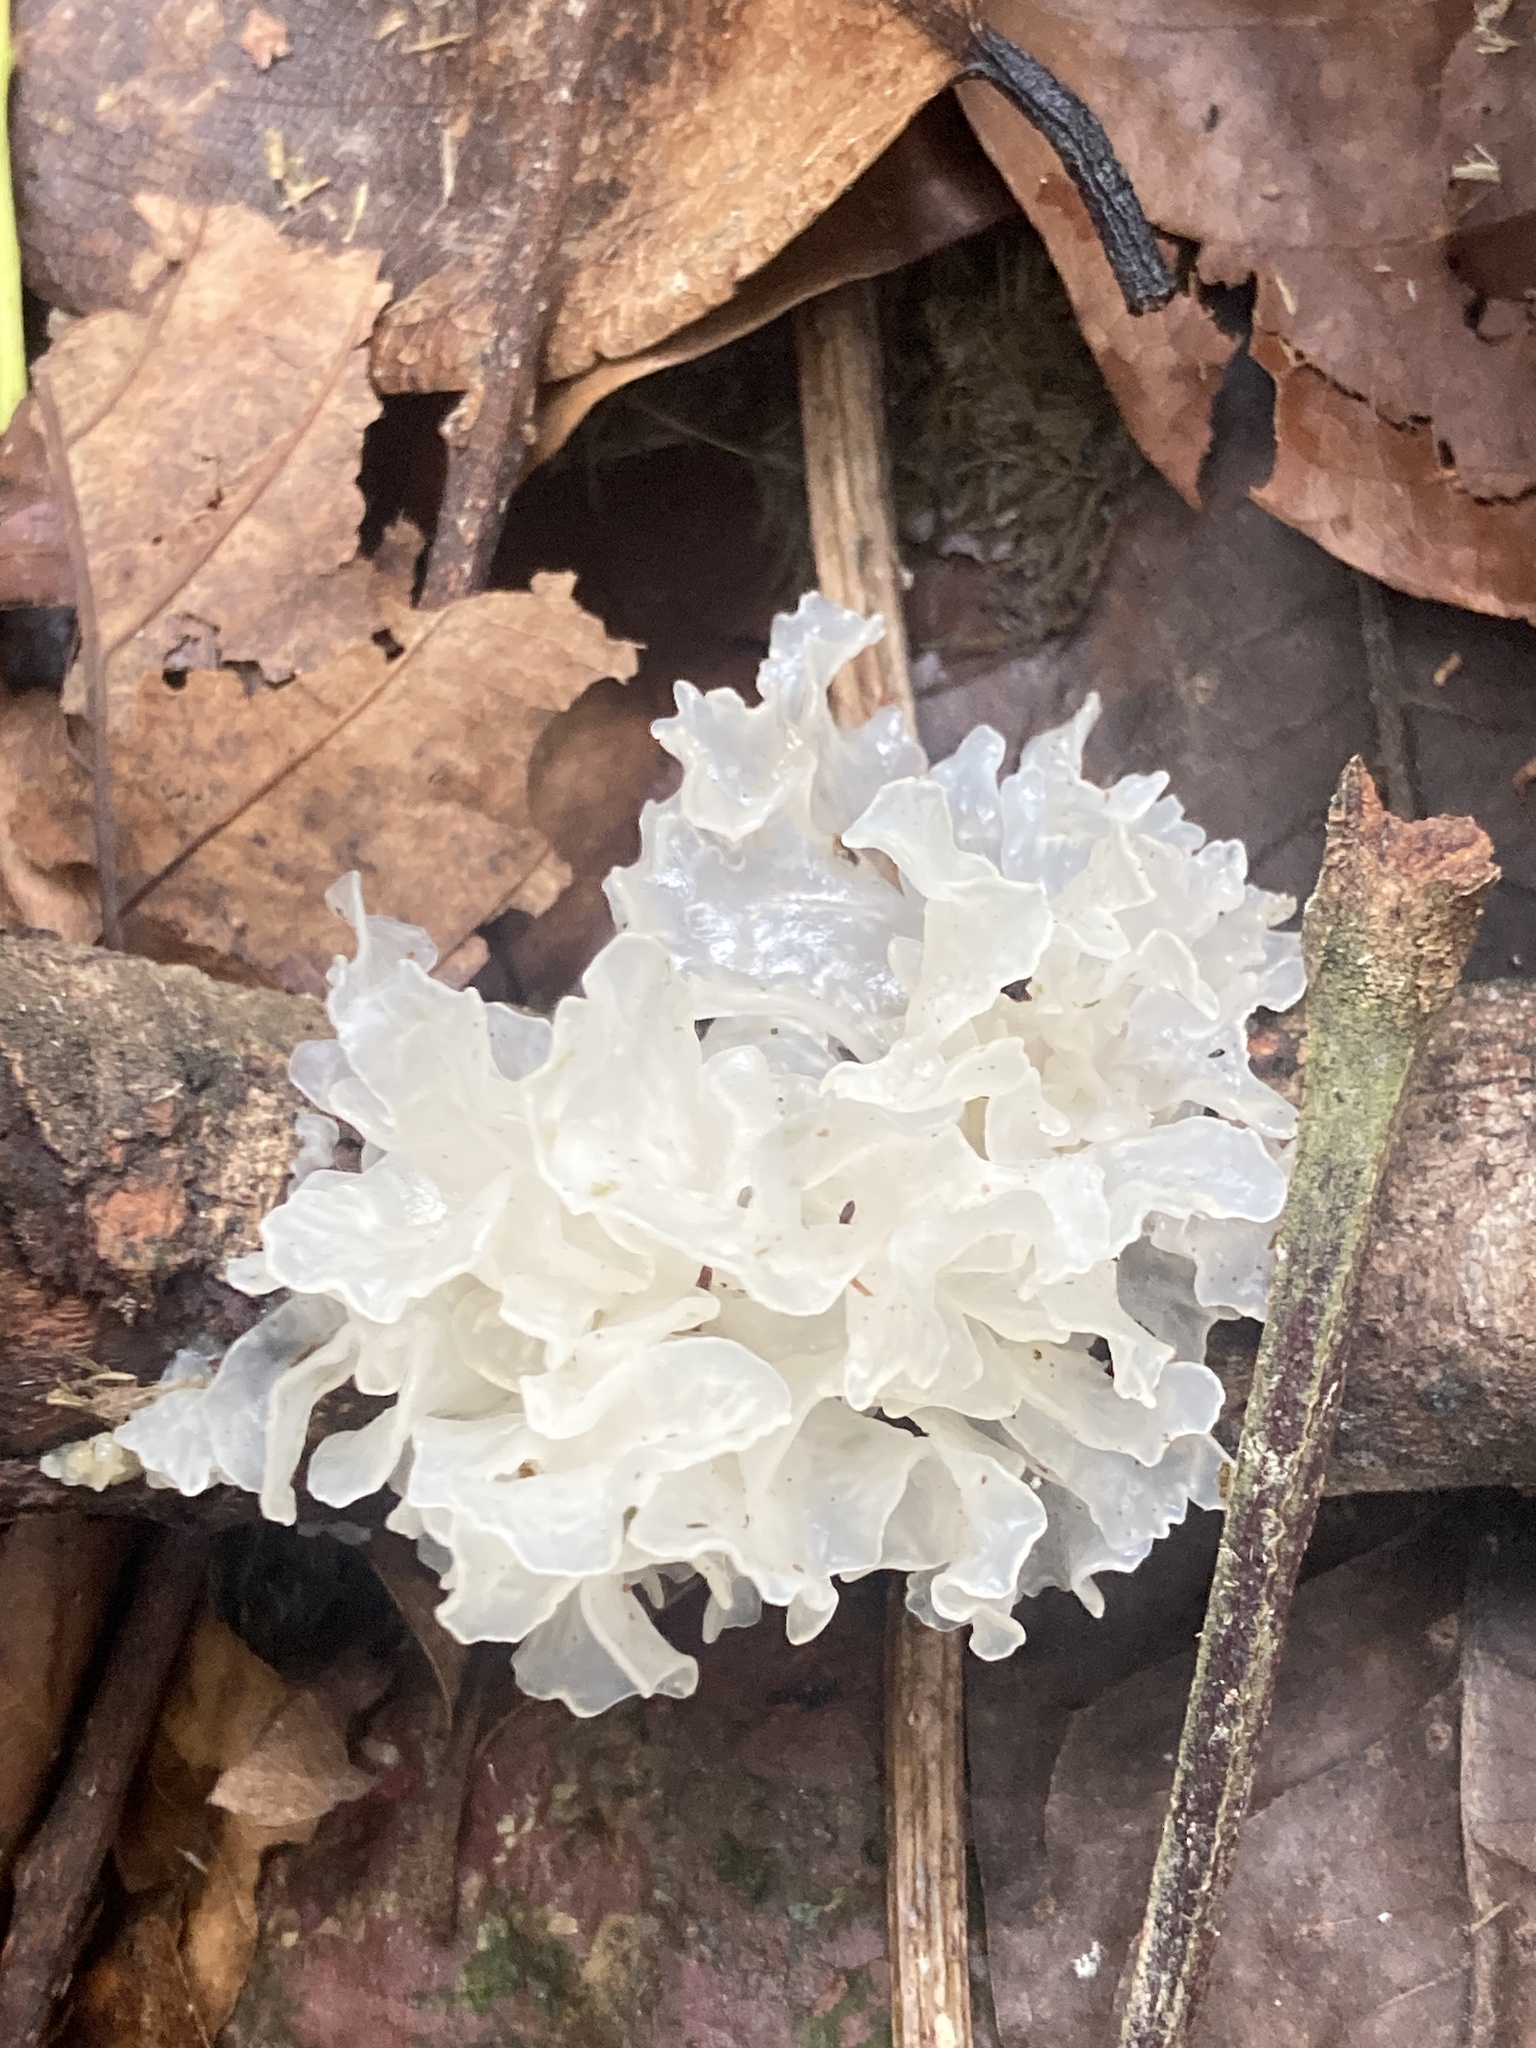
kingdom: Fungi
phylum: Basidiomycota
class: Tremellomycetes
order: Tremellales
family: Tremellaceae
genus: Tremella
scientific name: Tremella fuciformis
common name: Snow fungus
